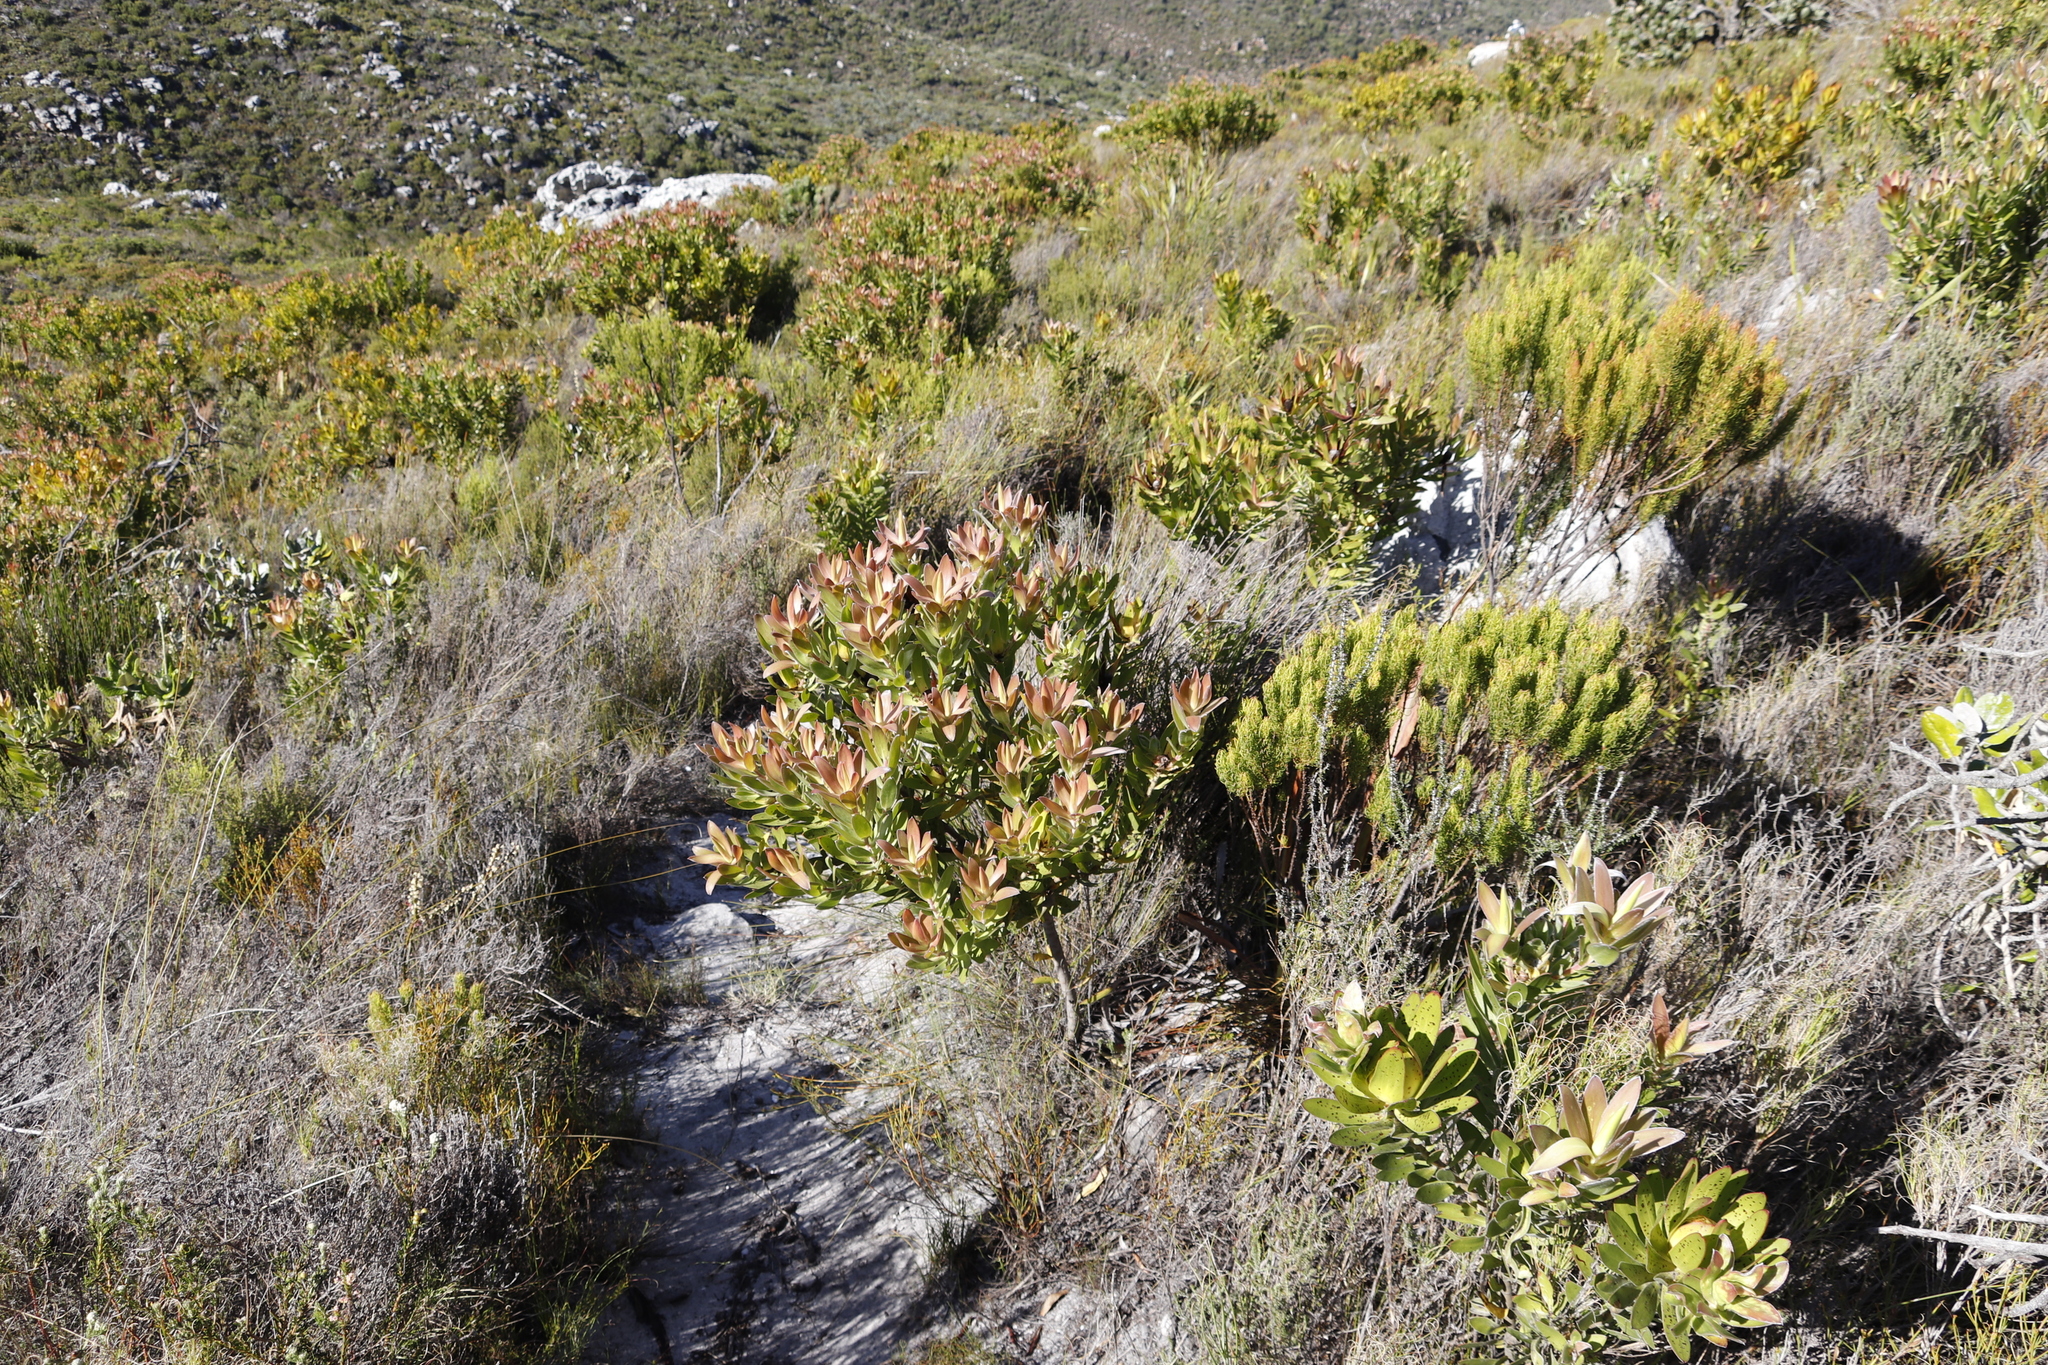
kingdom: Plantae
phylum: Tracheophyta
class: Magnoliopsida
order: Proteales
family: Proteaceae
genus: Leucadendron
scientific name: Leucadendron laureolum
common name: Golden sunshinebush
